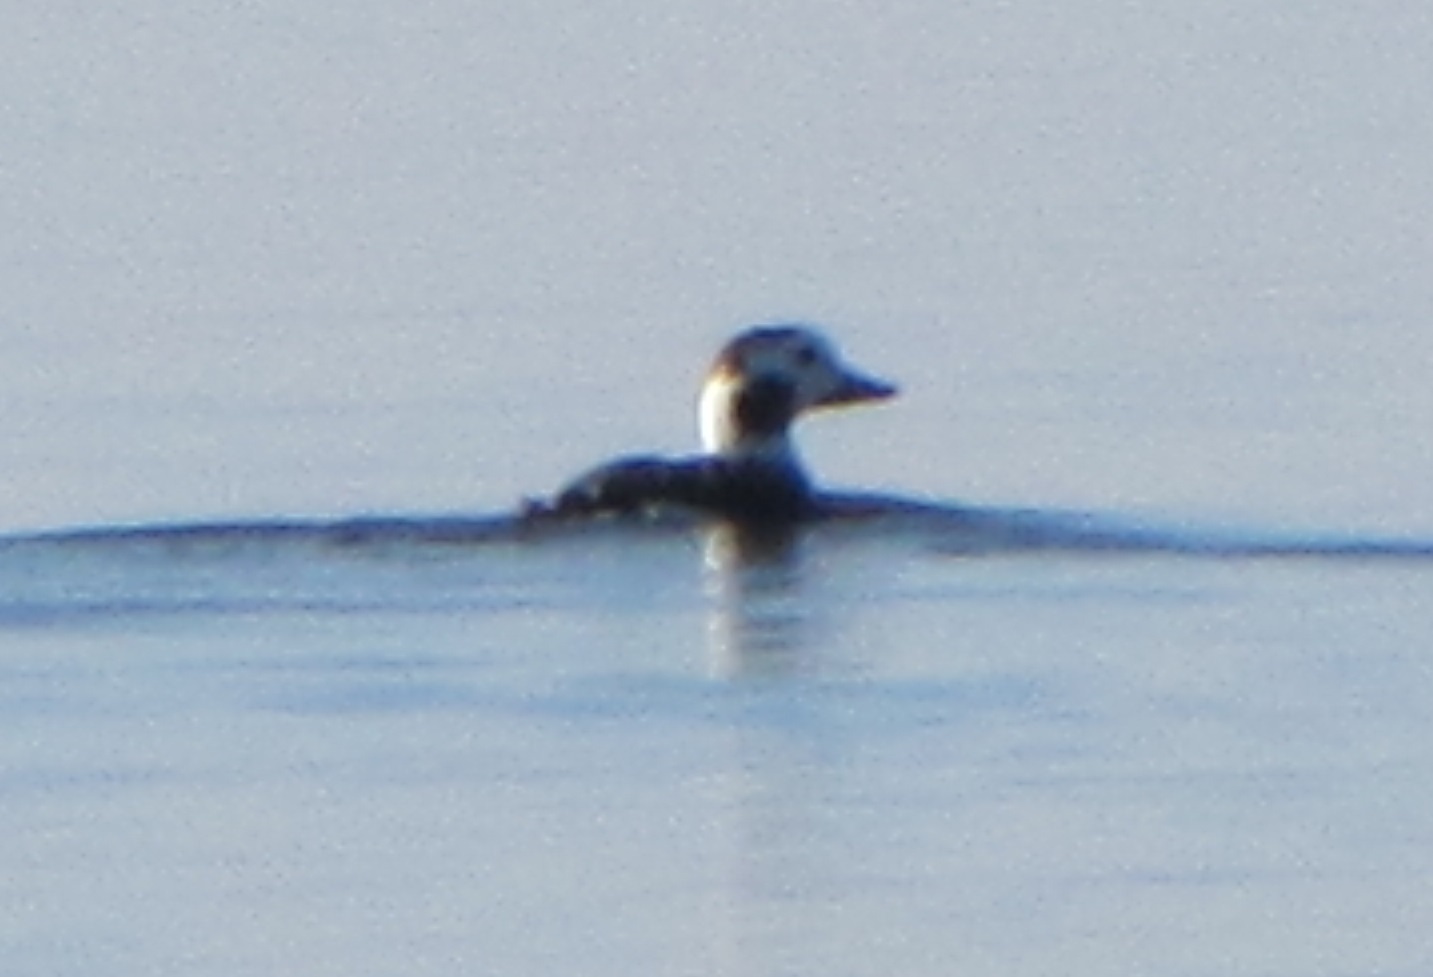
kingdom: Animalia
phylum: Chordata
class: Aves
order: Anseriformes
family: Anatidae
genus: Clangula
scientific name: Clangula hyemalis
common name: Long-tailed duck
